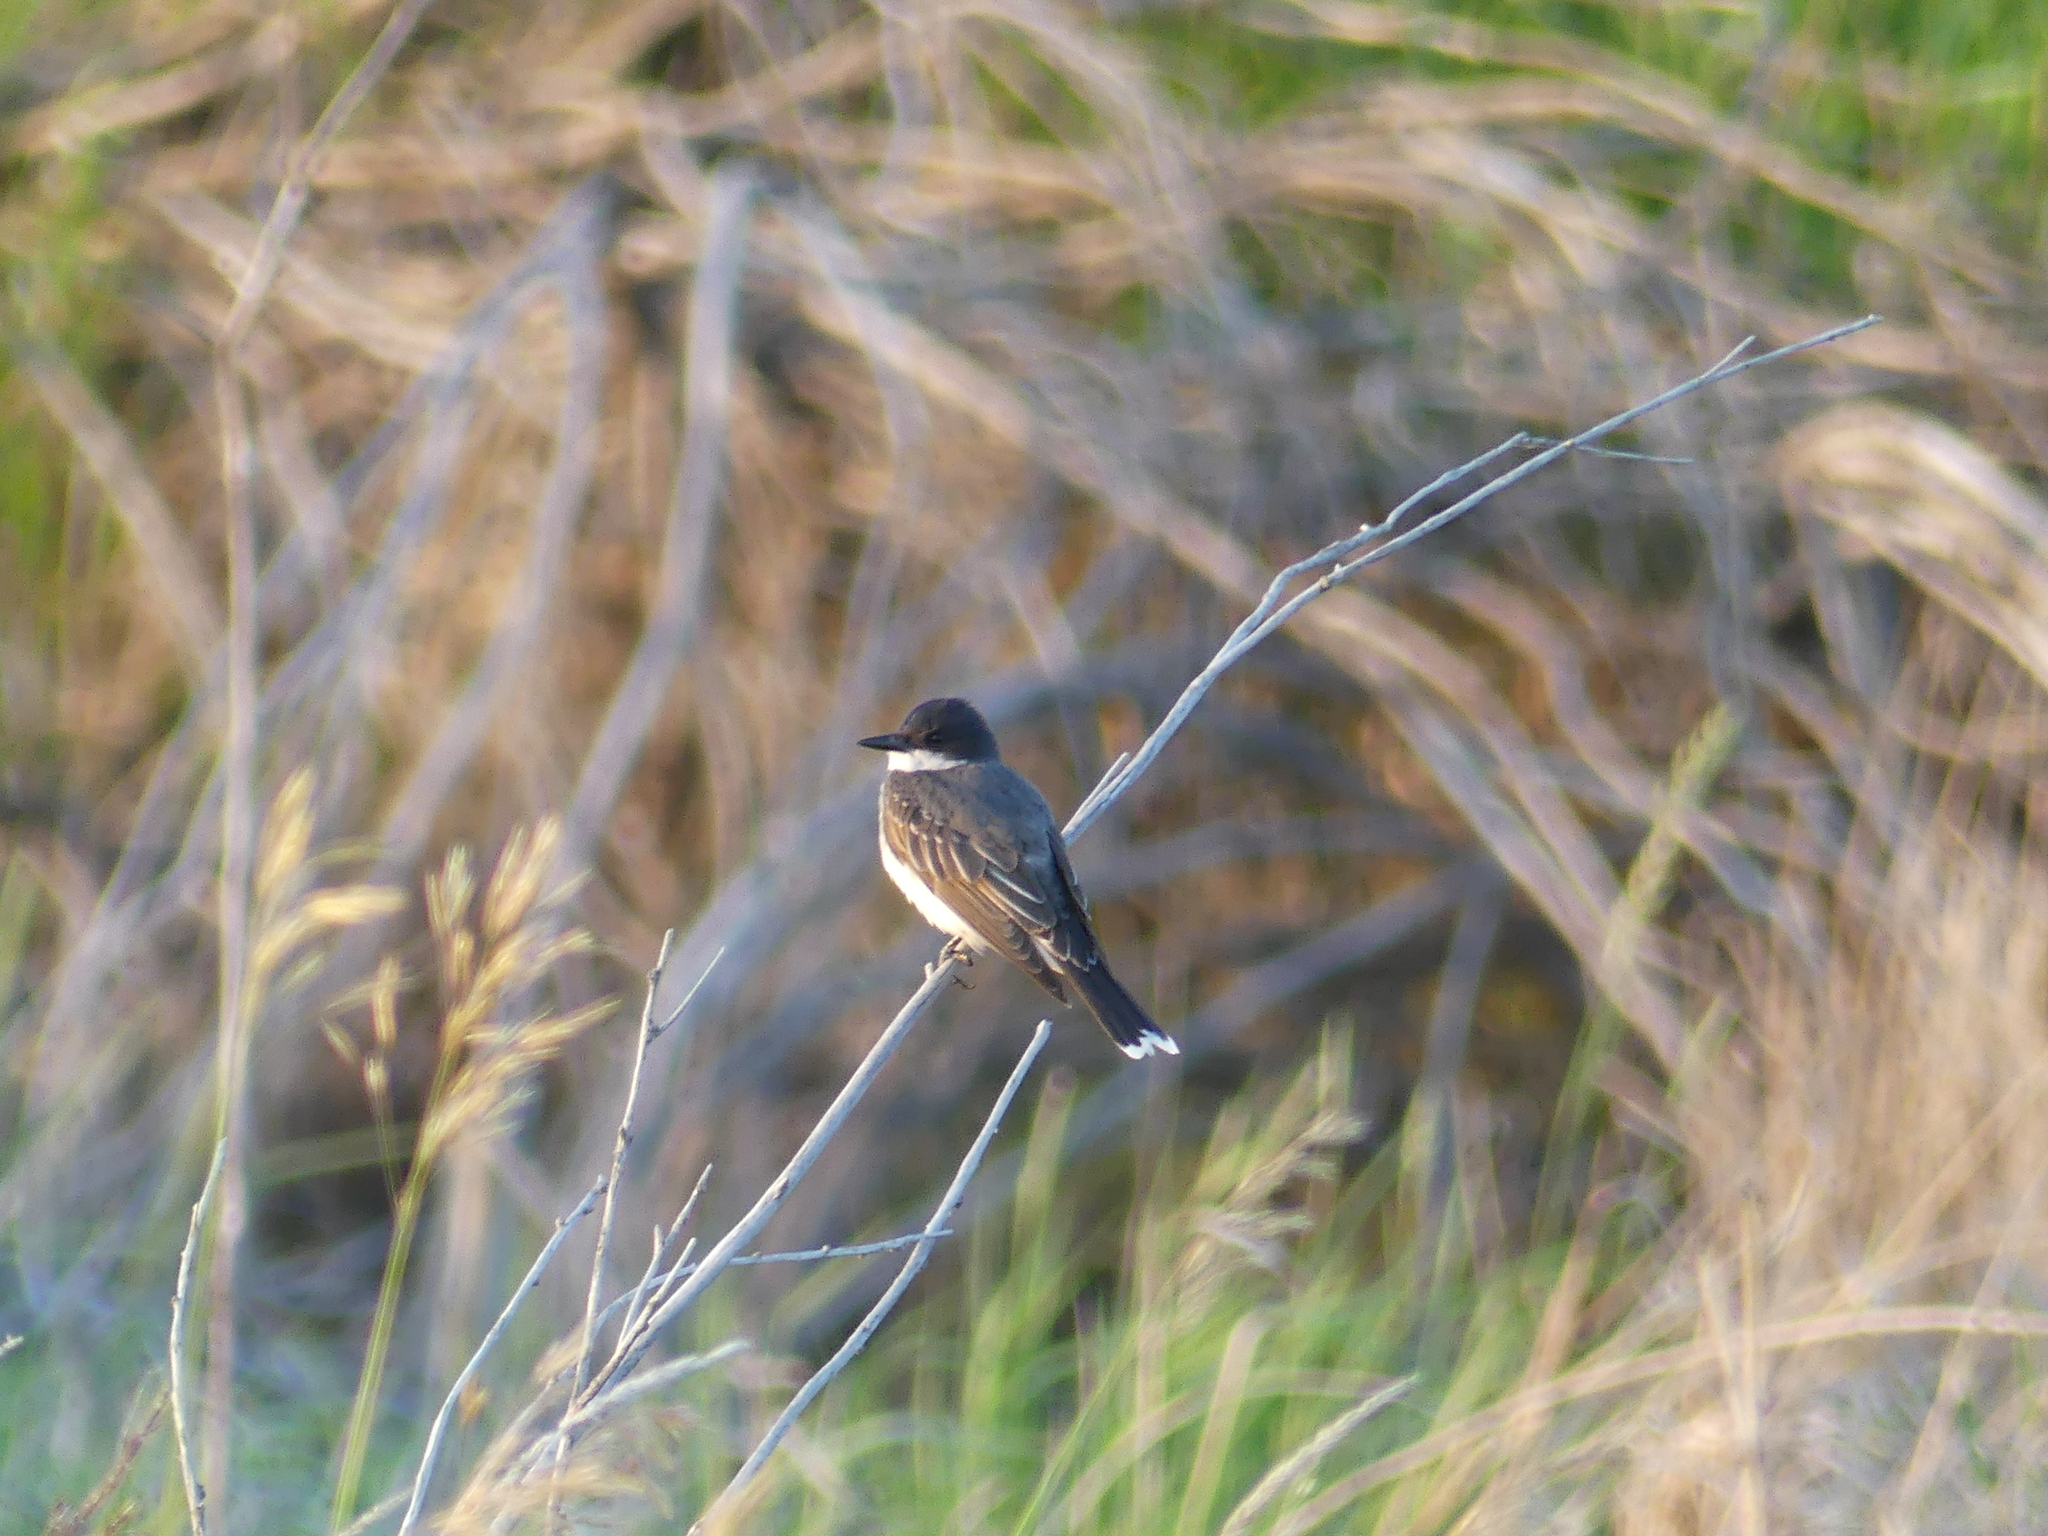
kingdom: Animalia
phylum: Chordata
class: Aves
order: Passeriformes
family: Tyrannidae
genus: Tyrannus
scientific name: Tyrannus tyrannus
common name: Eastern kingbird
